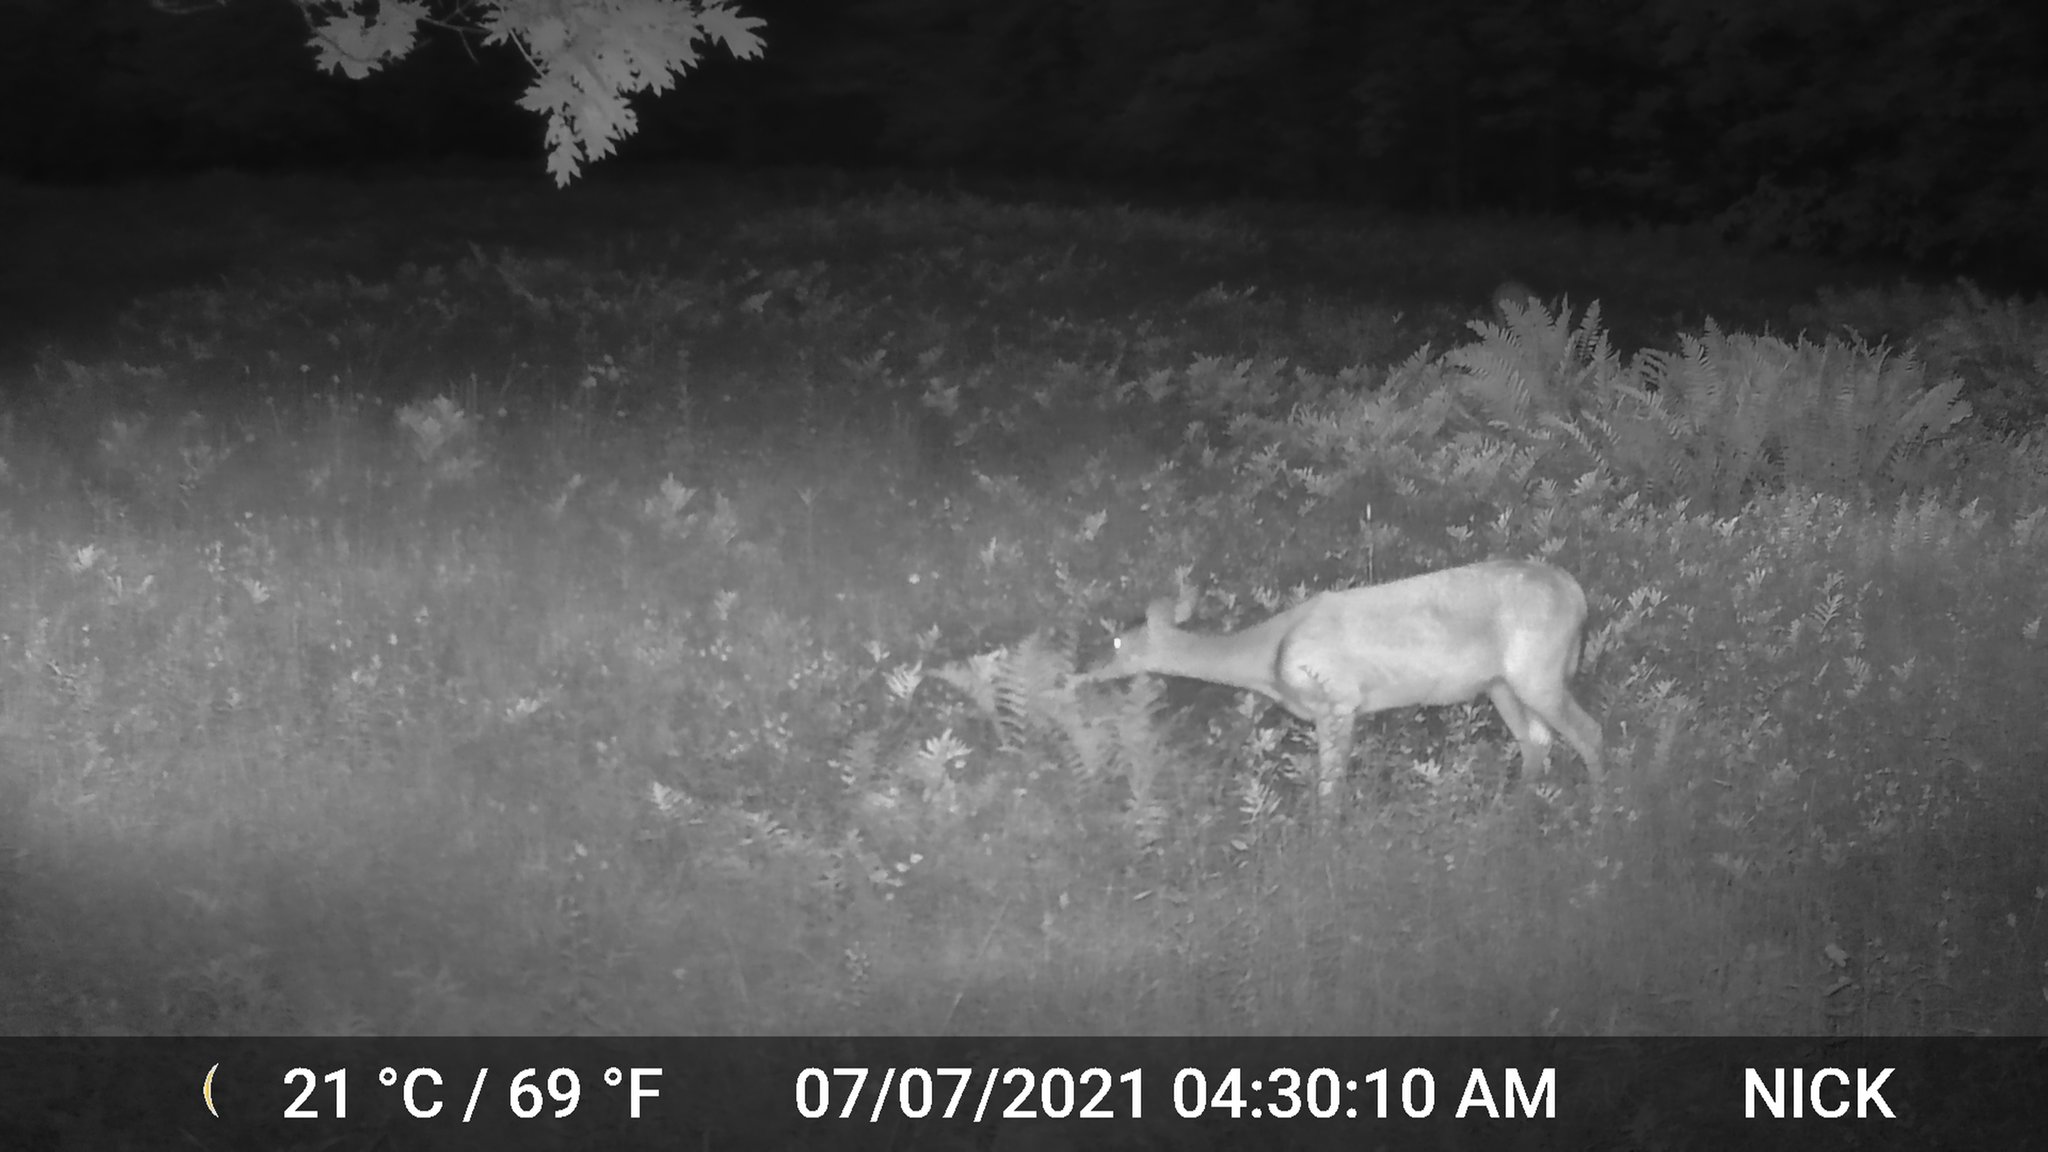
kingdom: Animalia
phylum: Chordata
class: Mammalia
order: Artiodactyla
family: Cervidae
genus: Odocoileus
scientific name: Odocoileus virginianus
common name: White-tailed deer
